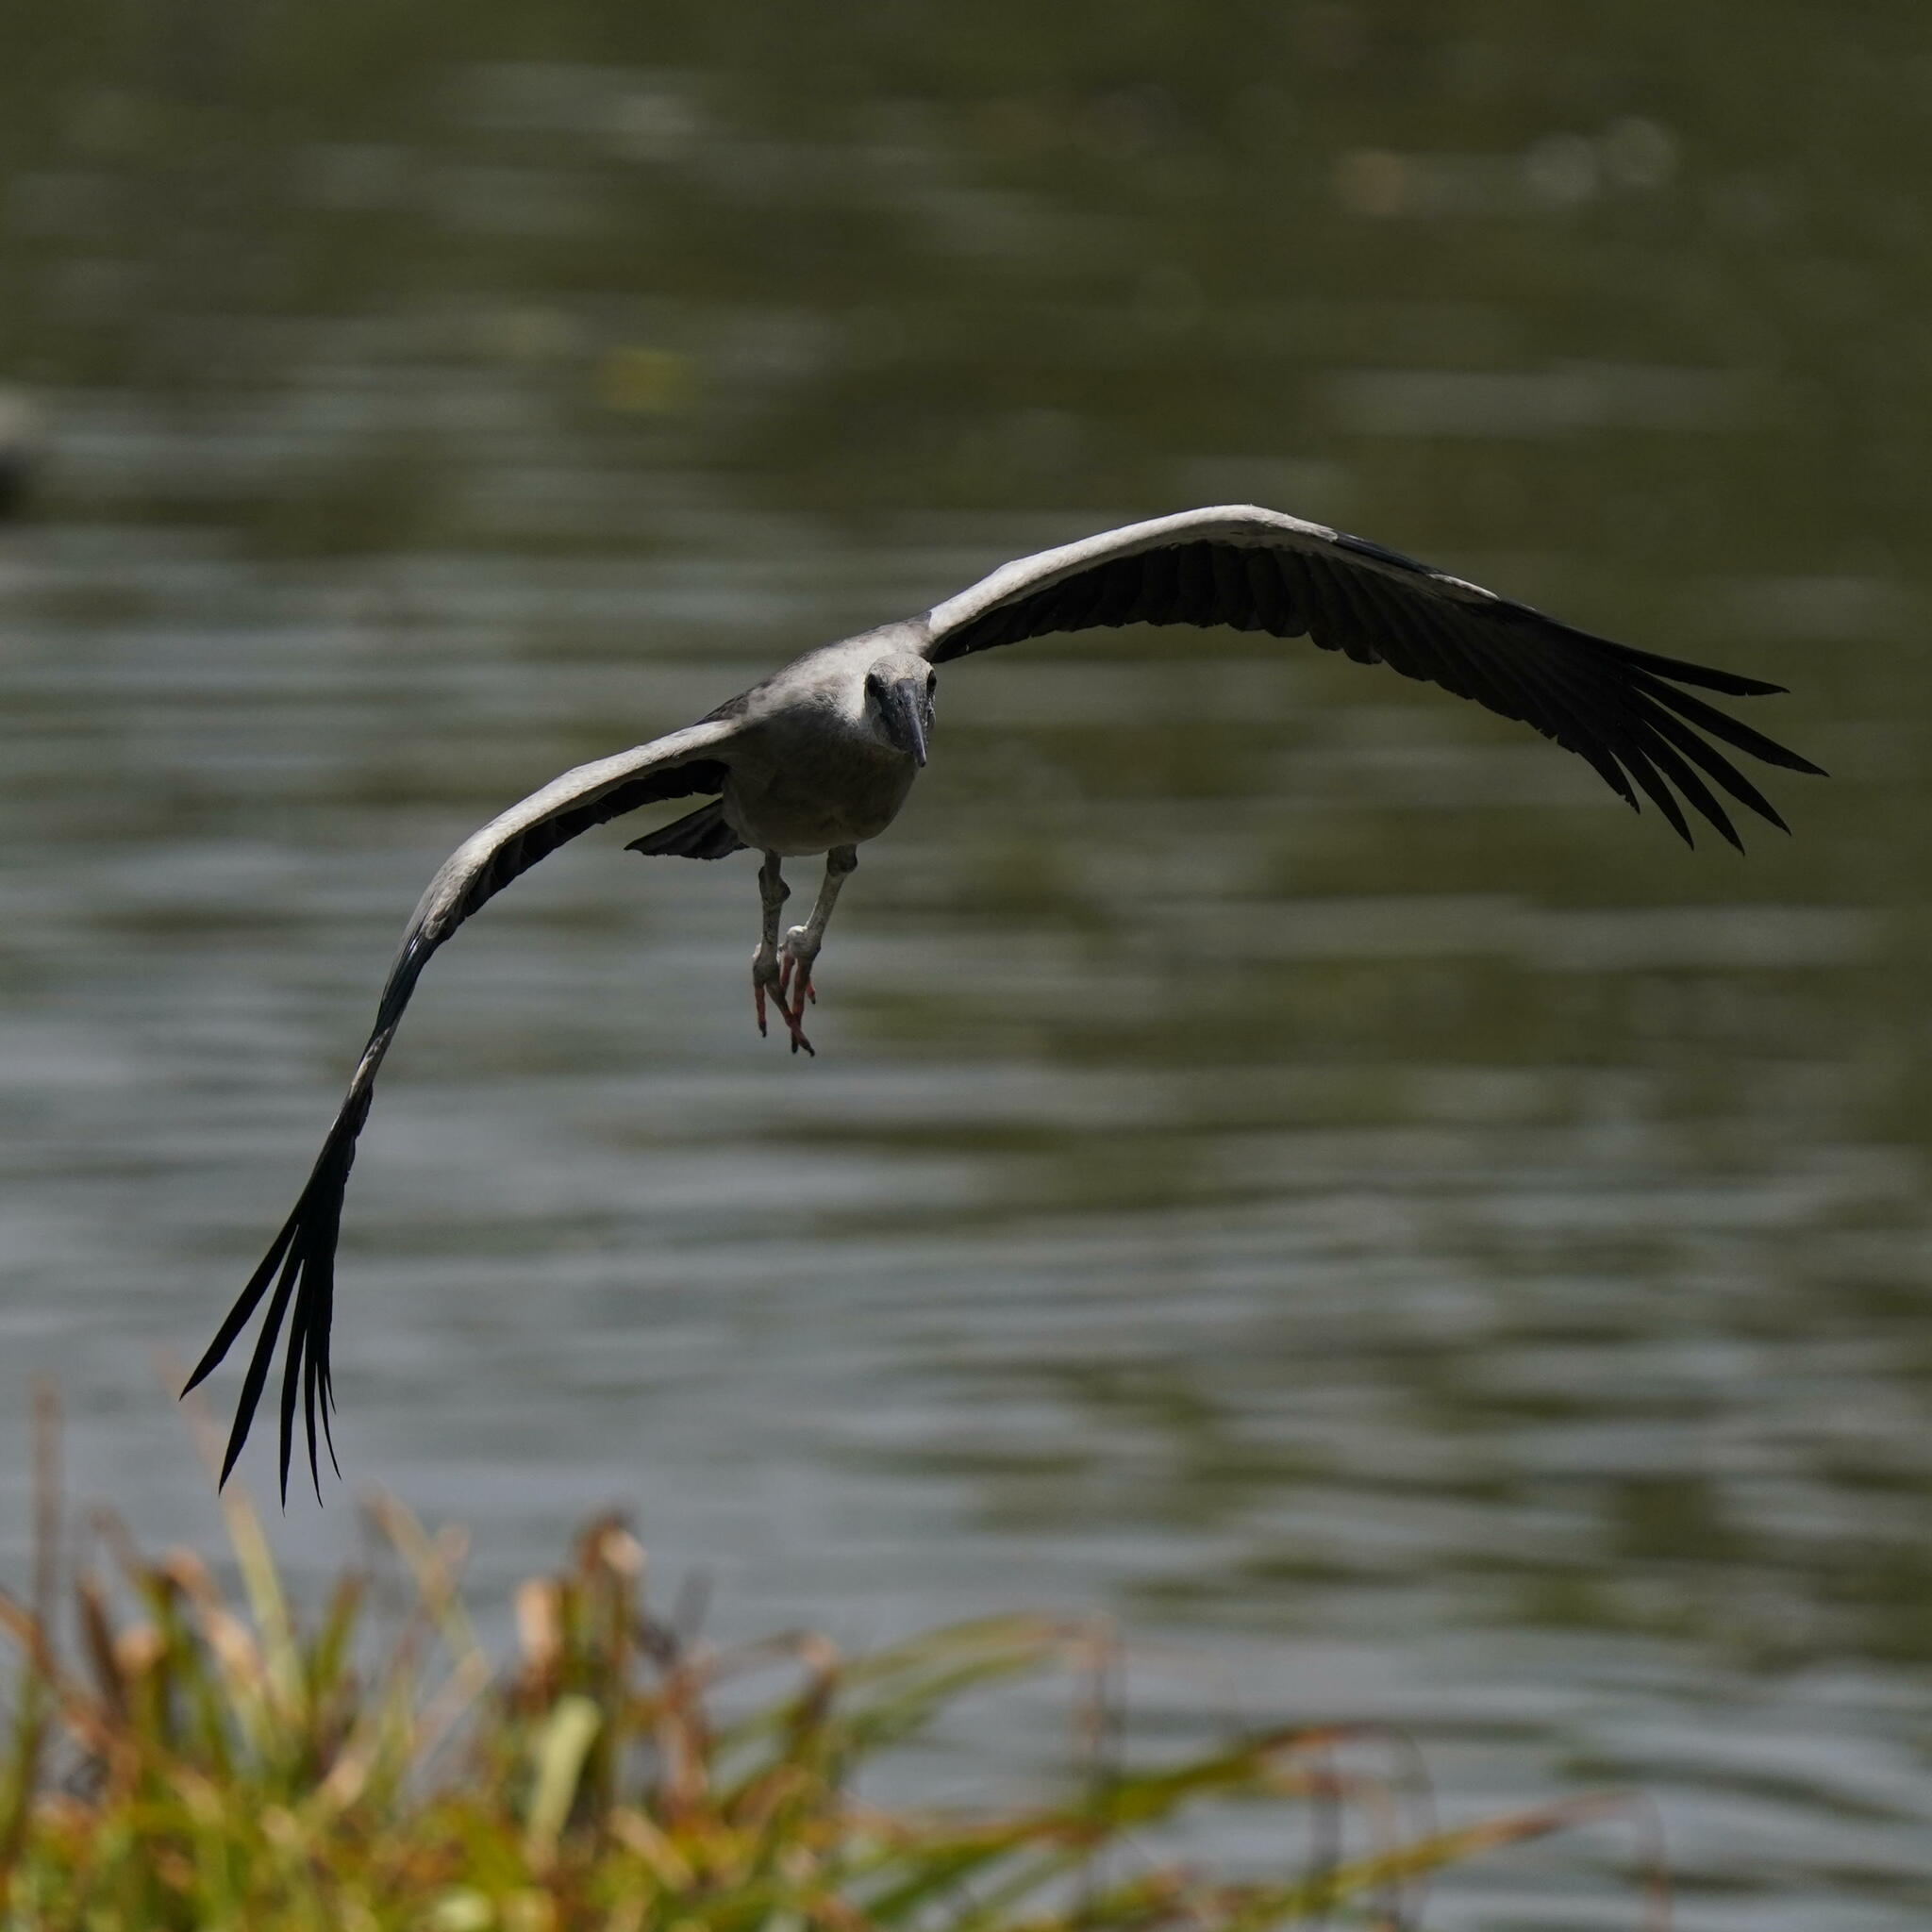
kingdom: Animalia
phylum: Chordata
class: Aves
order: Ciconiiformes
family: Ciconiidae
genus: Anastomus
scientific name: Anastomus oscitans
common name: Asian openbill
